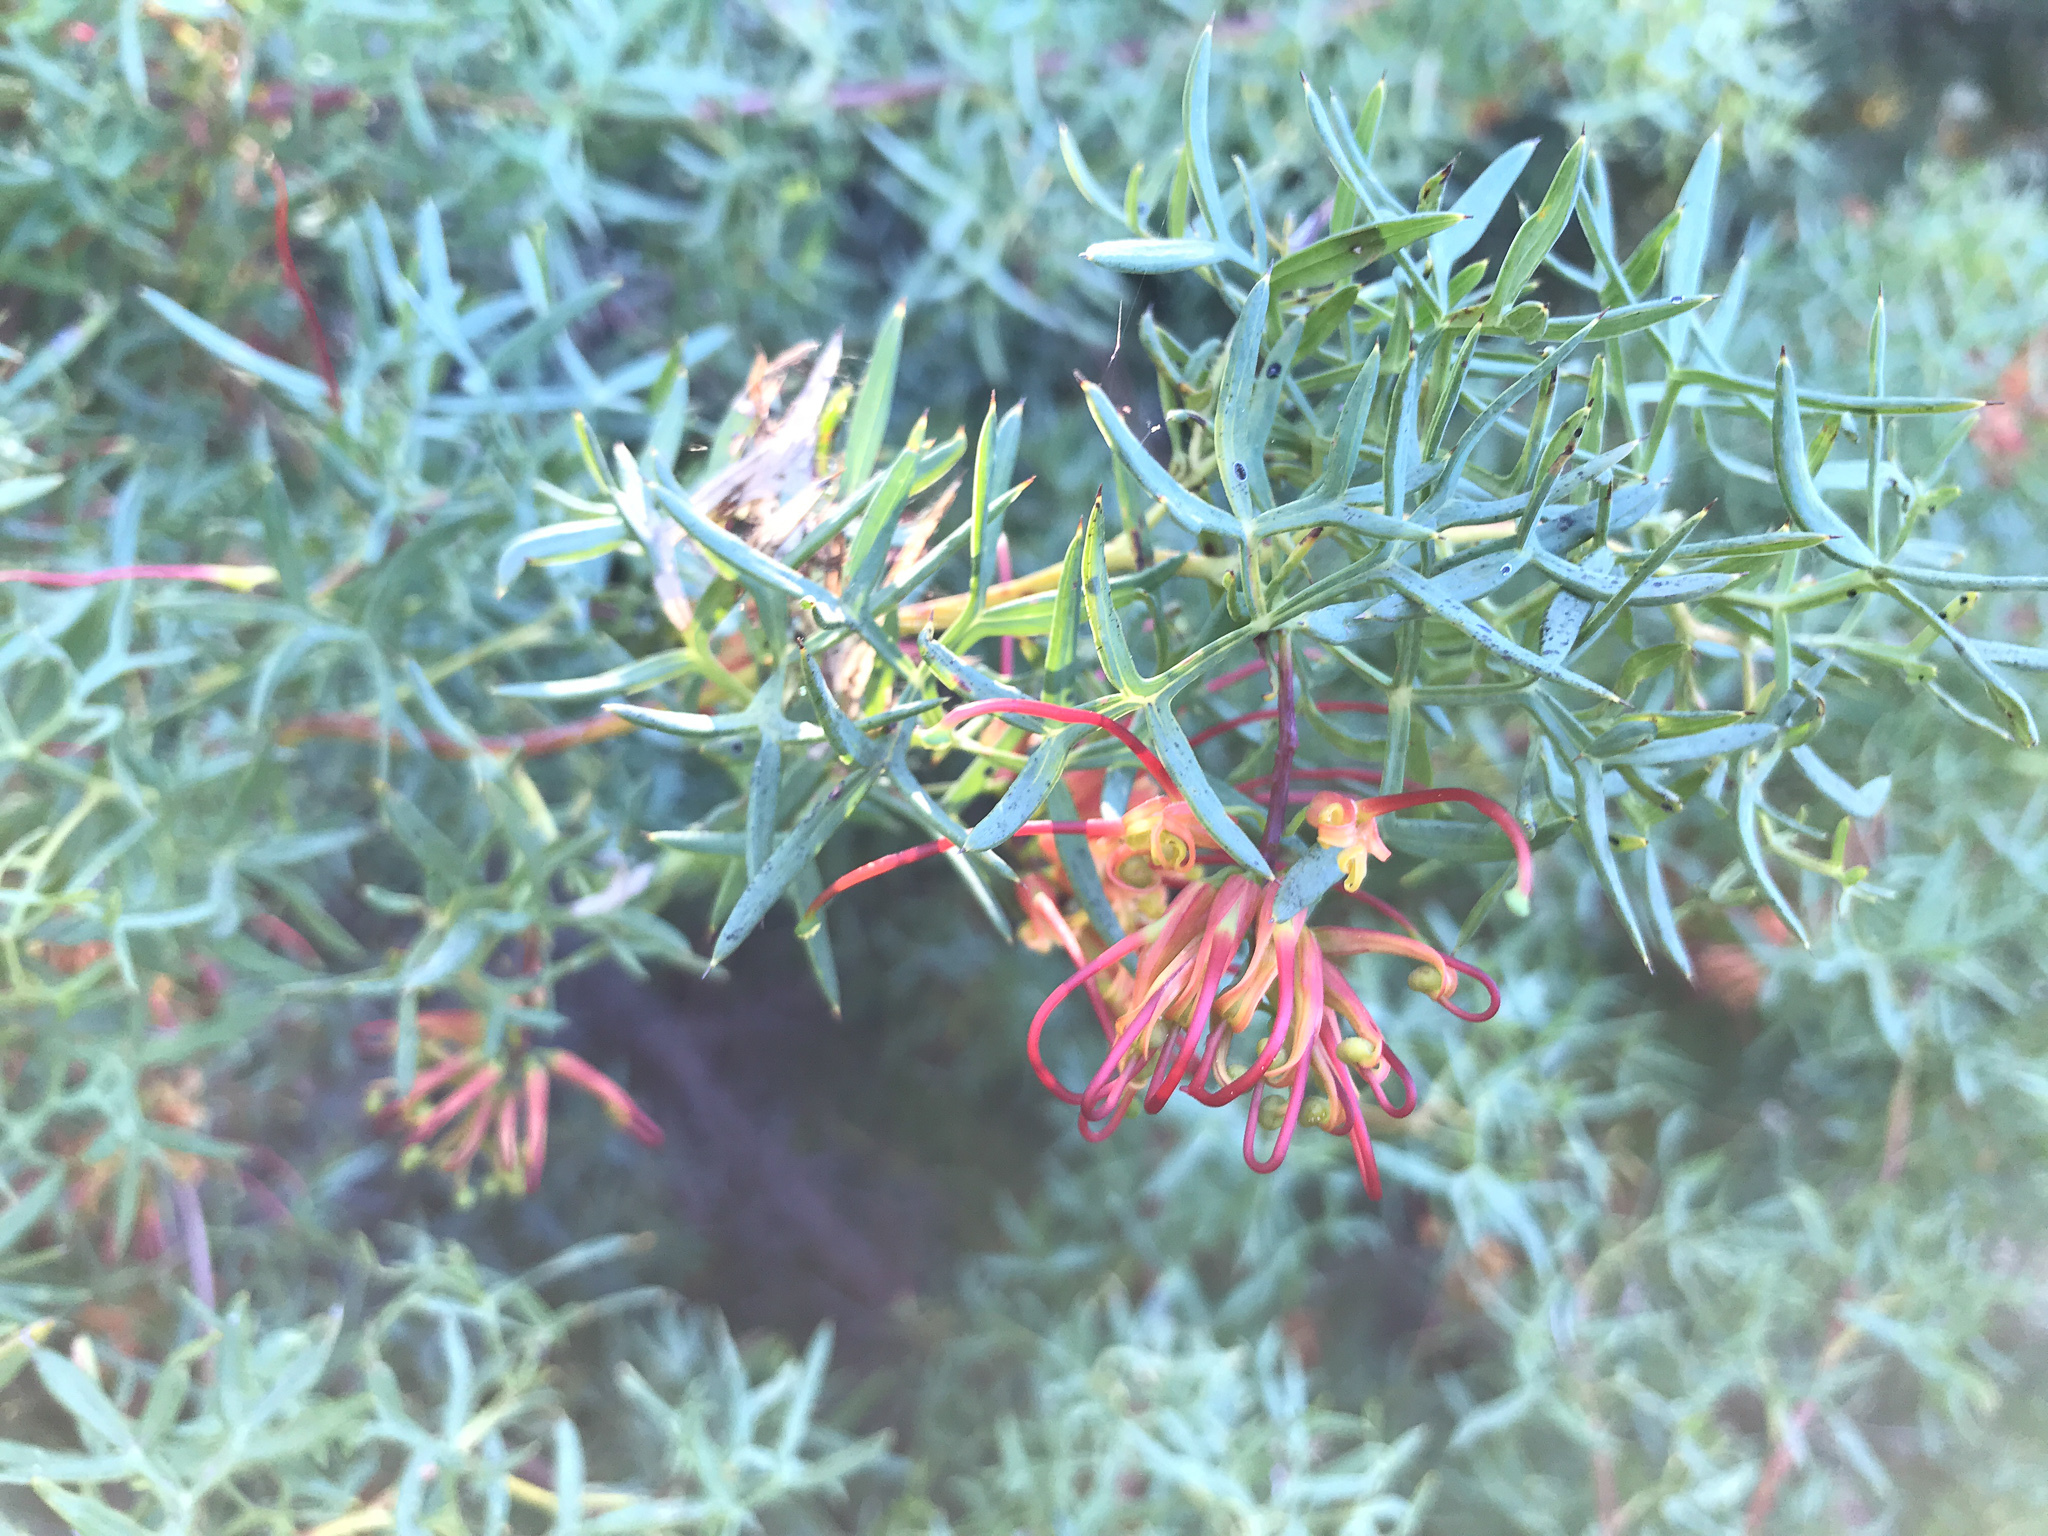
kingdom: Plantae
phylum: Tracheophyta
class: Magnoliopsida
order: Proteales
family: Proteaceae
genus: Grevillea
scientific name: Grevillea ripicola
